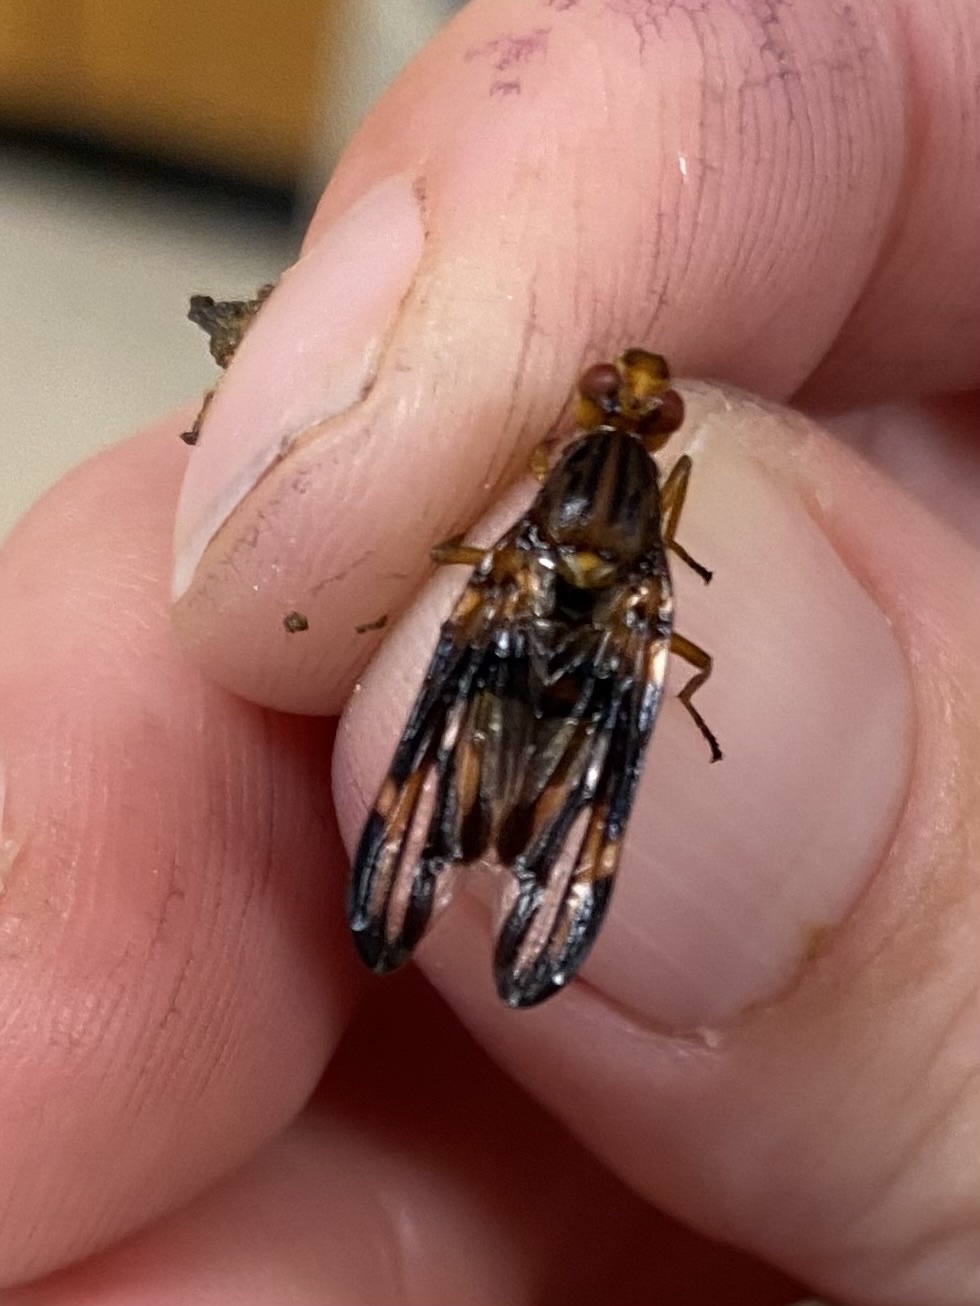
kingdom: Animalia
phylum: Arthropoda
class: Insecta
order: Diptera
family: Ulidiidae
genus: Idana
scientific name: Idana marginata
